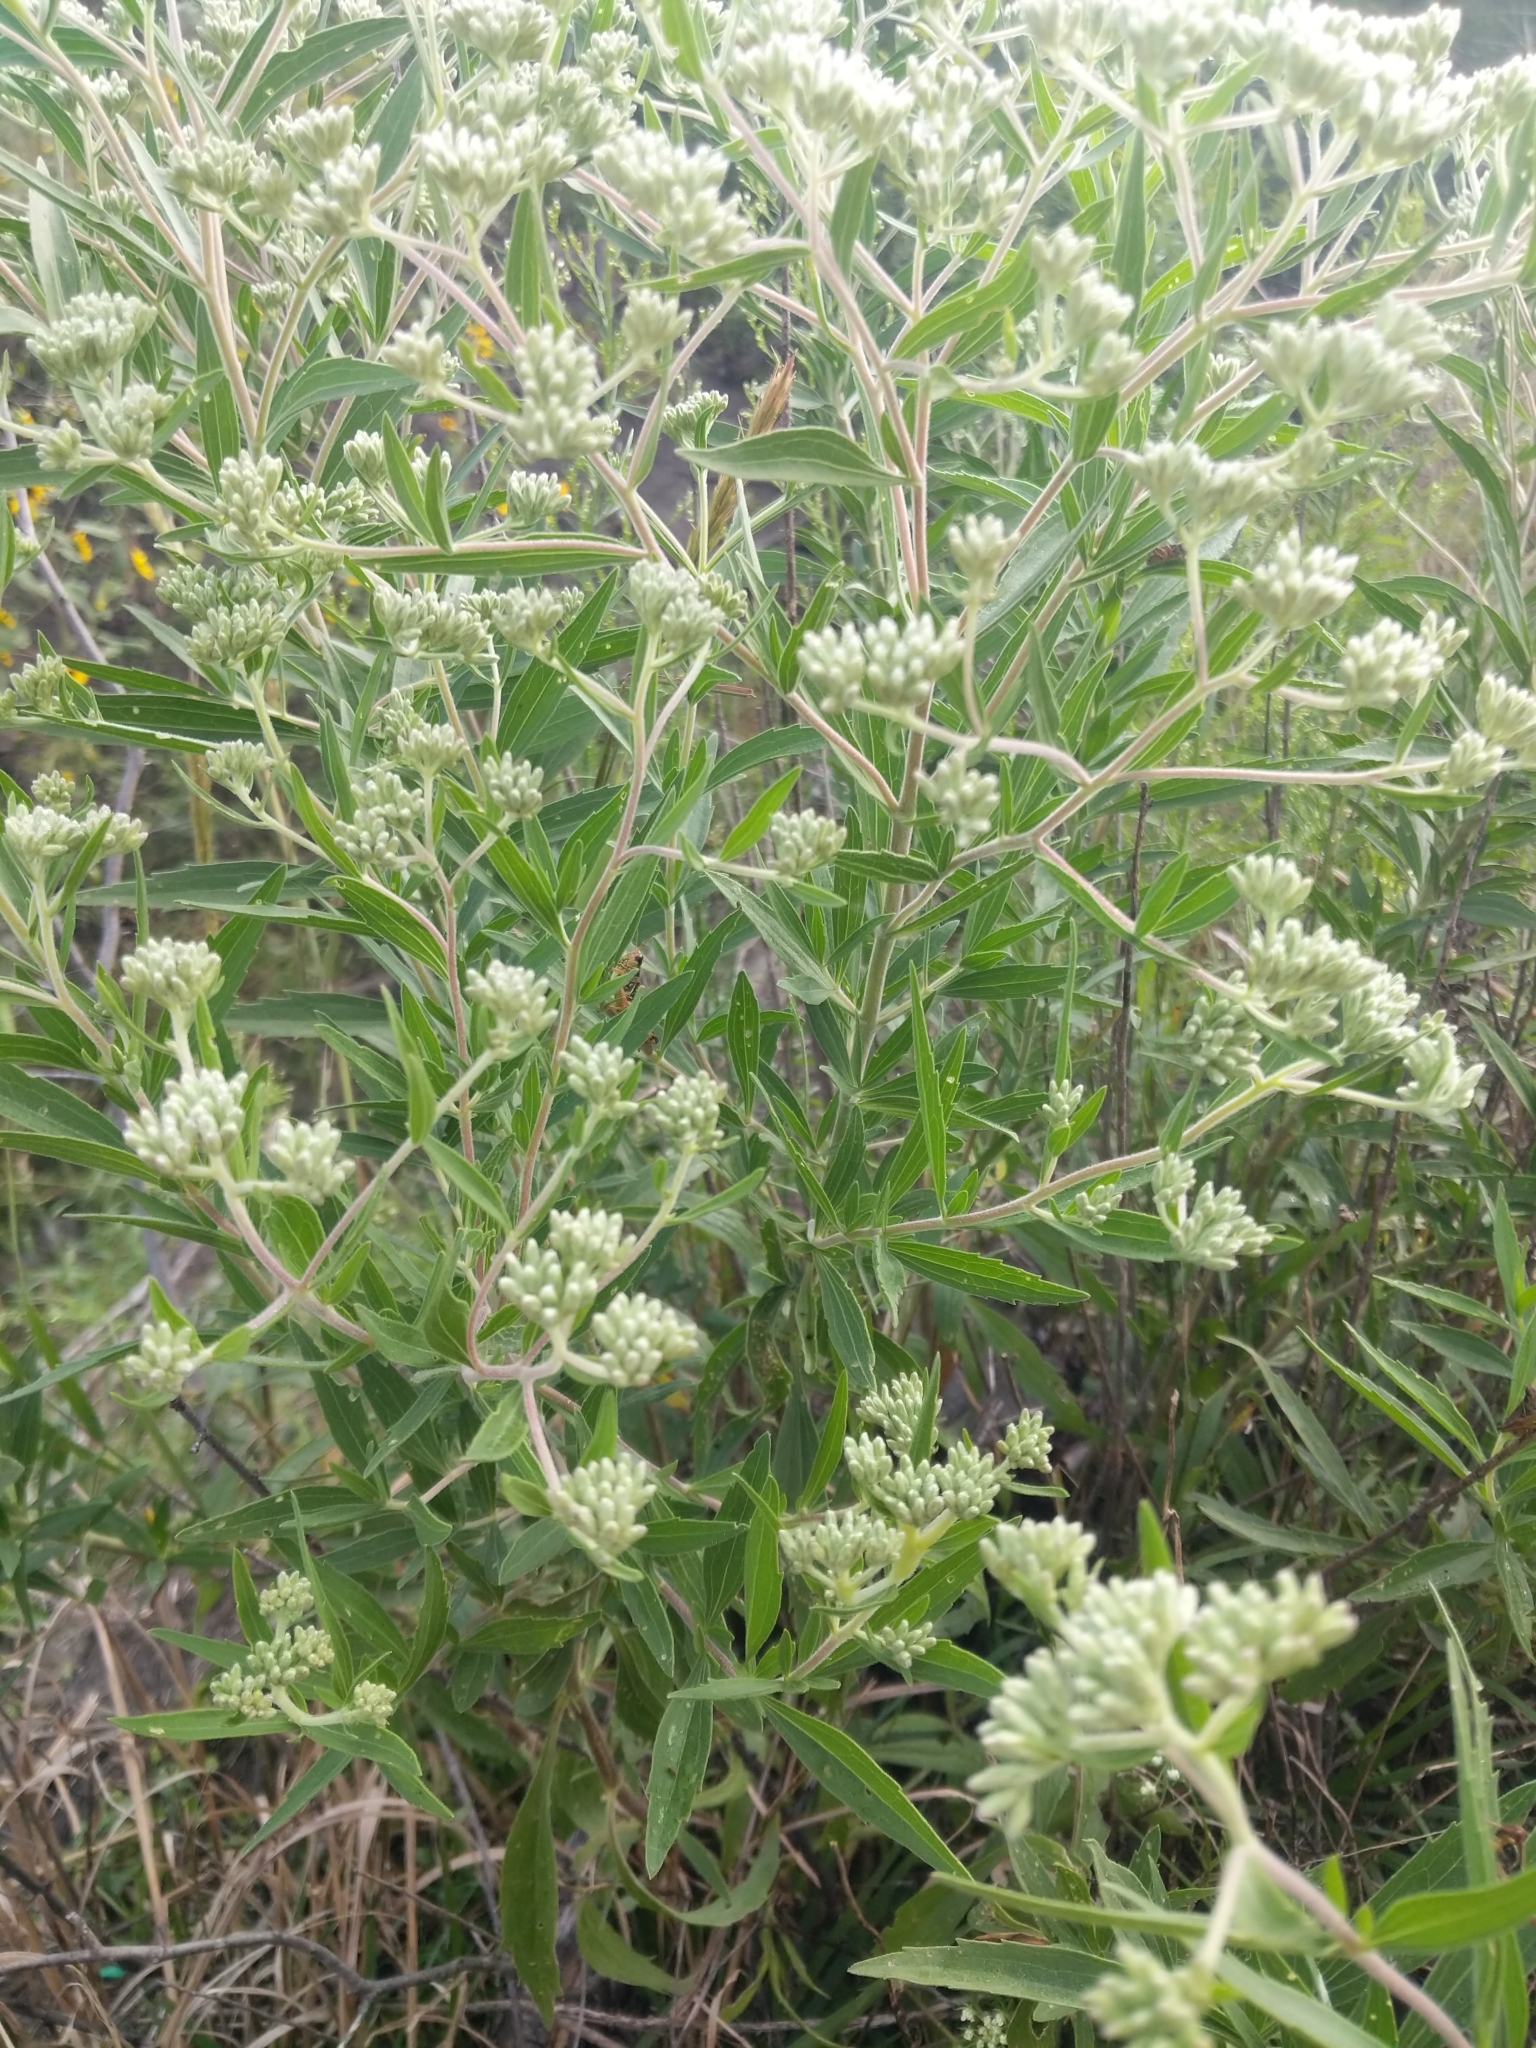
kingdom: Plantae
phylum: Tracheophyta
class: Magnoliopsida
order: Asterales
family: Asteraceae
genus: Eupatorium
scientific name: Eupatorium altissimum
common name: Tall thoroughwort
